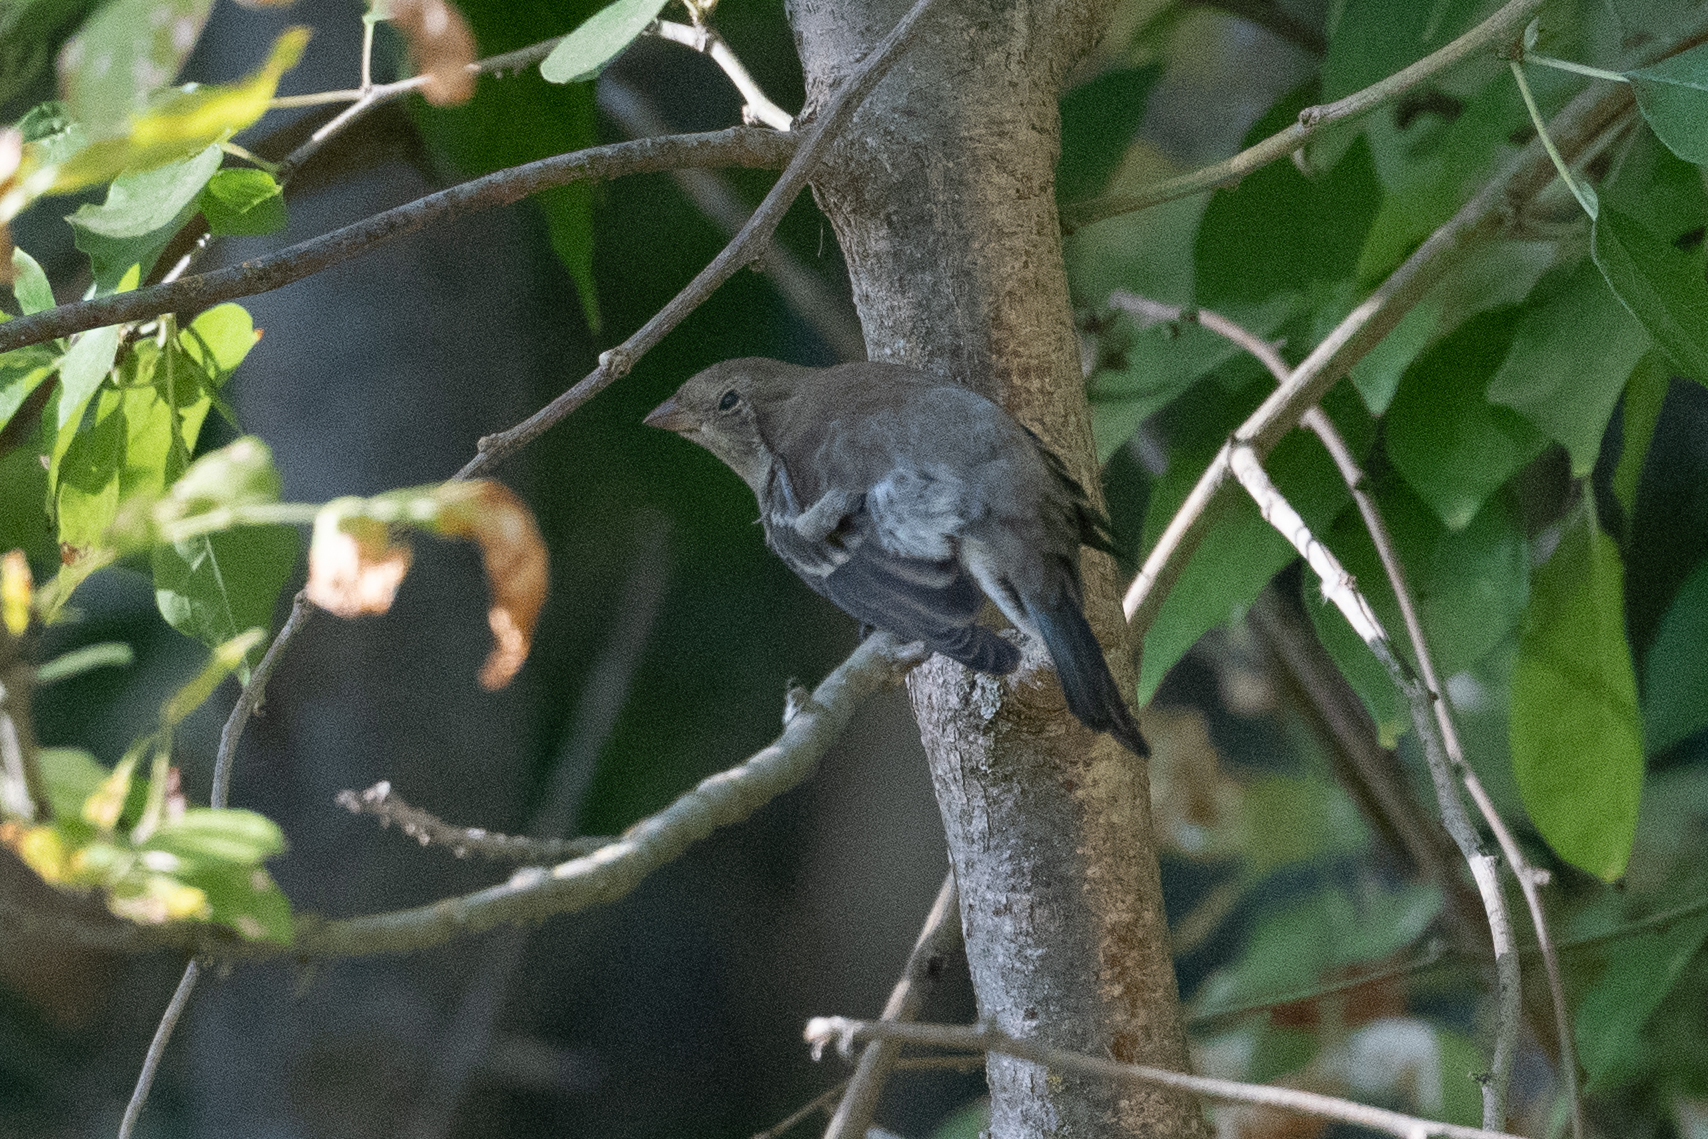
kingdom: Animalia
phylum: Chordata
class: Aves
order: Passeriformes
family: Cardinalidae
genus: Passerina
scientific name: Passerina amoena
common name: Lazuli bunting
